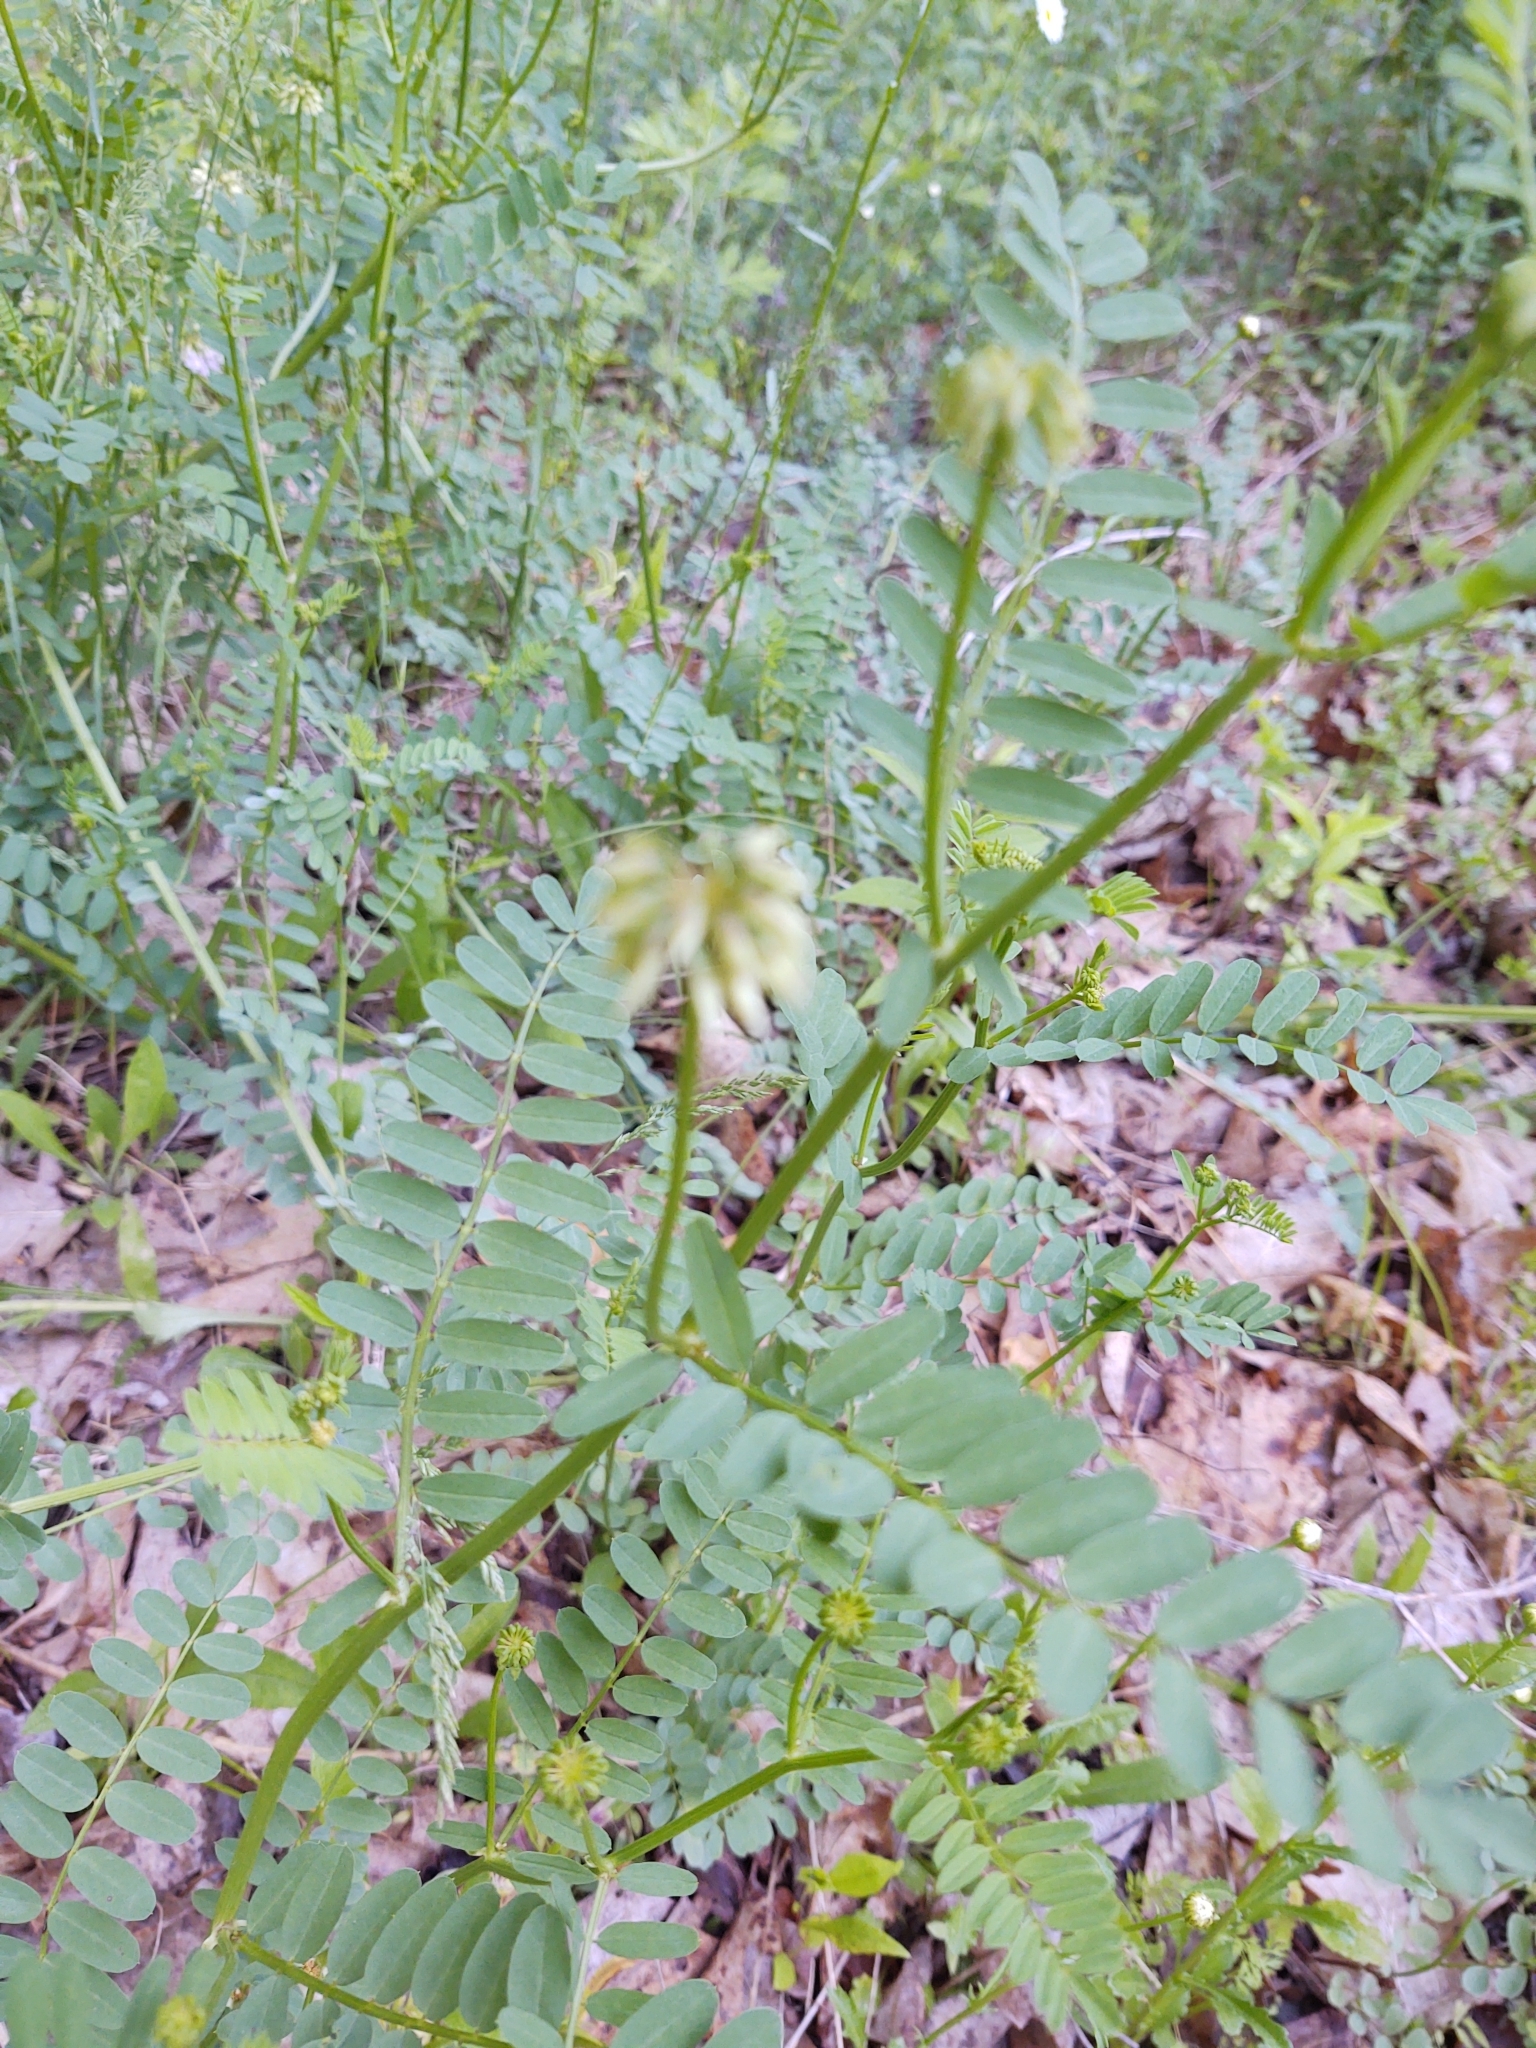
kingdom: Plantae
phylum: Tracheophyta
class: Magnoliopsida
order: Fabales
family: Fabaceae
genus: Coronilla
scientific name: Coronilla varia
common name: Crownvetch
